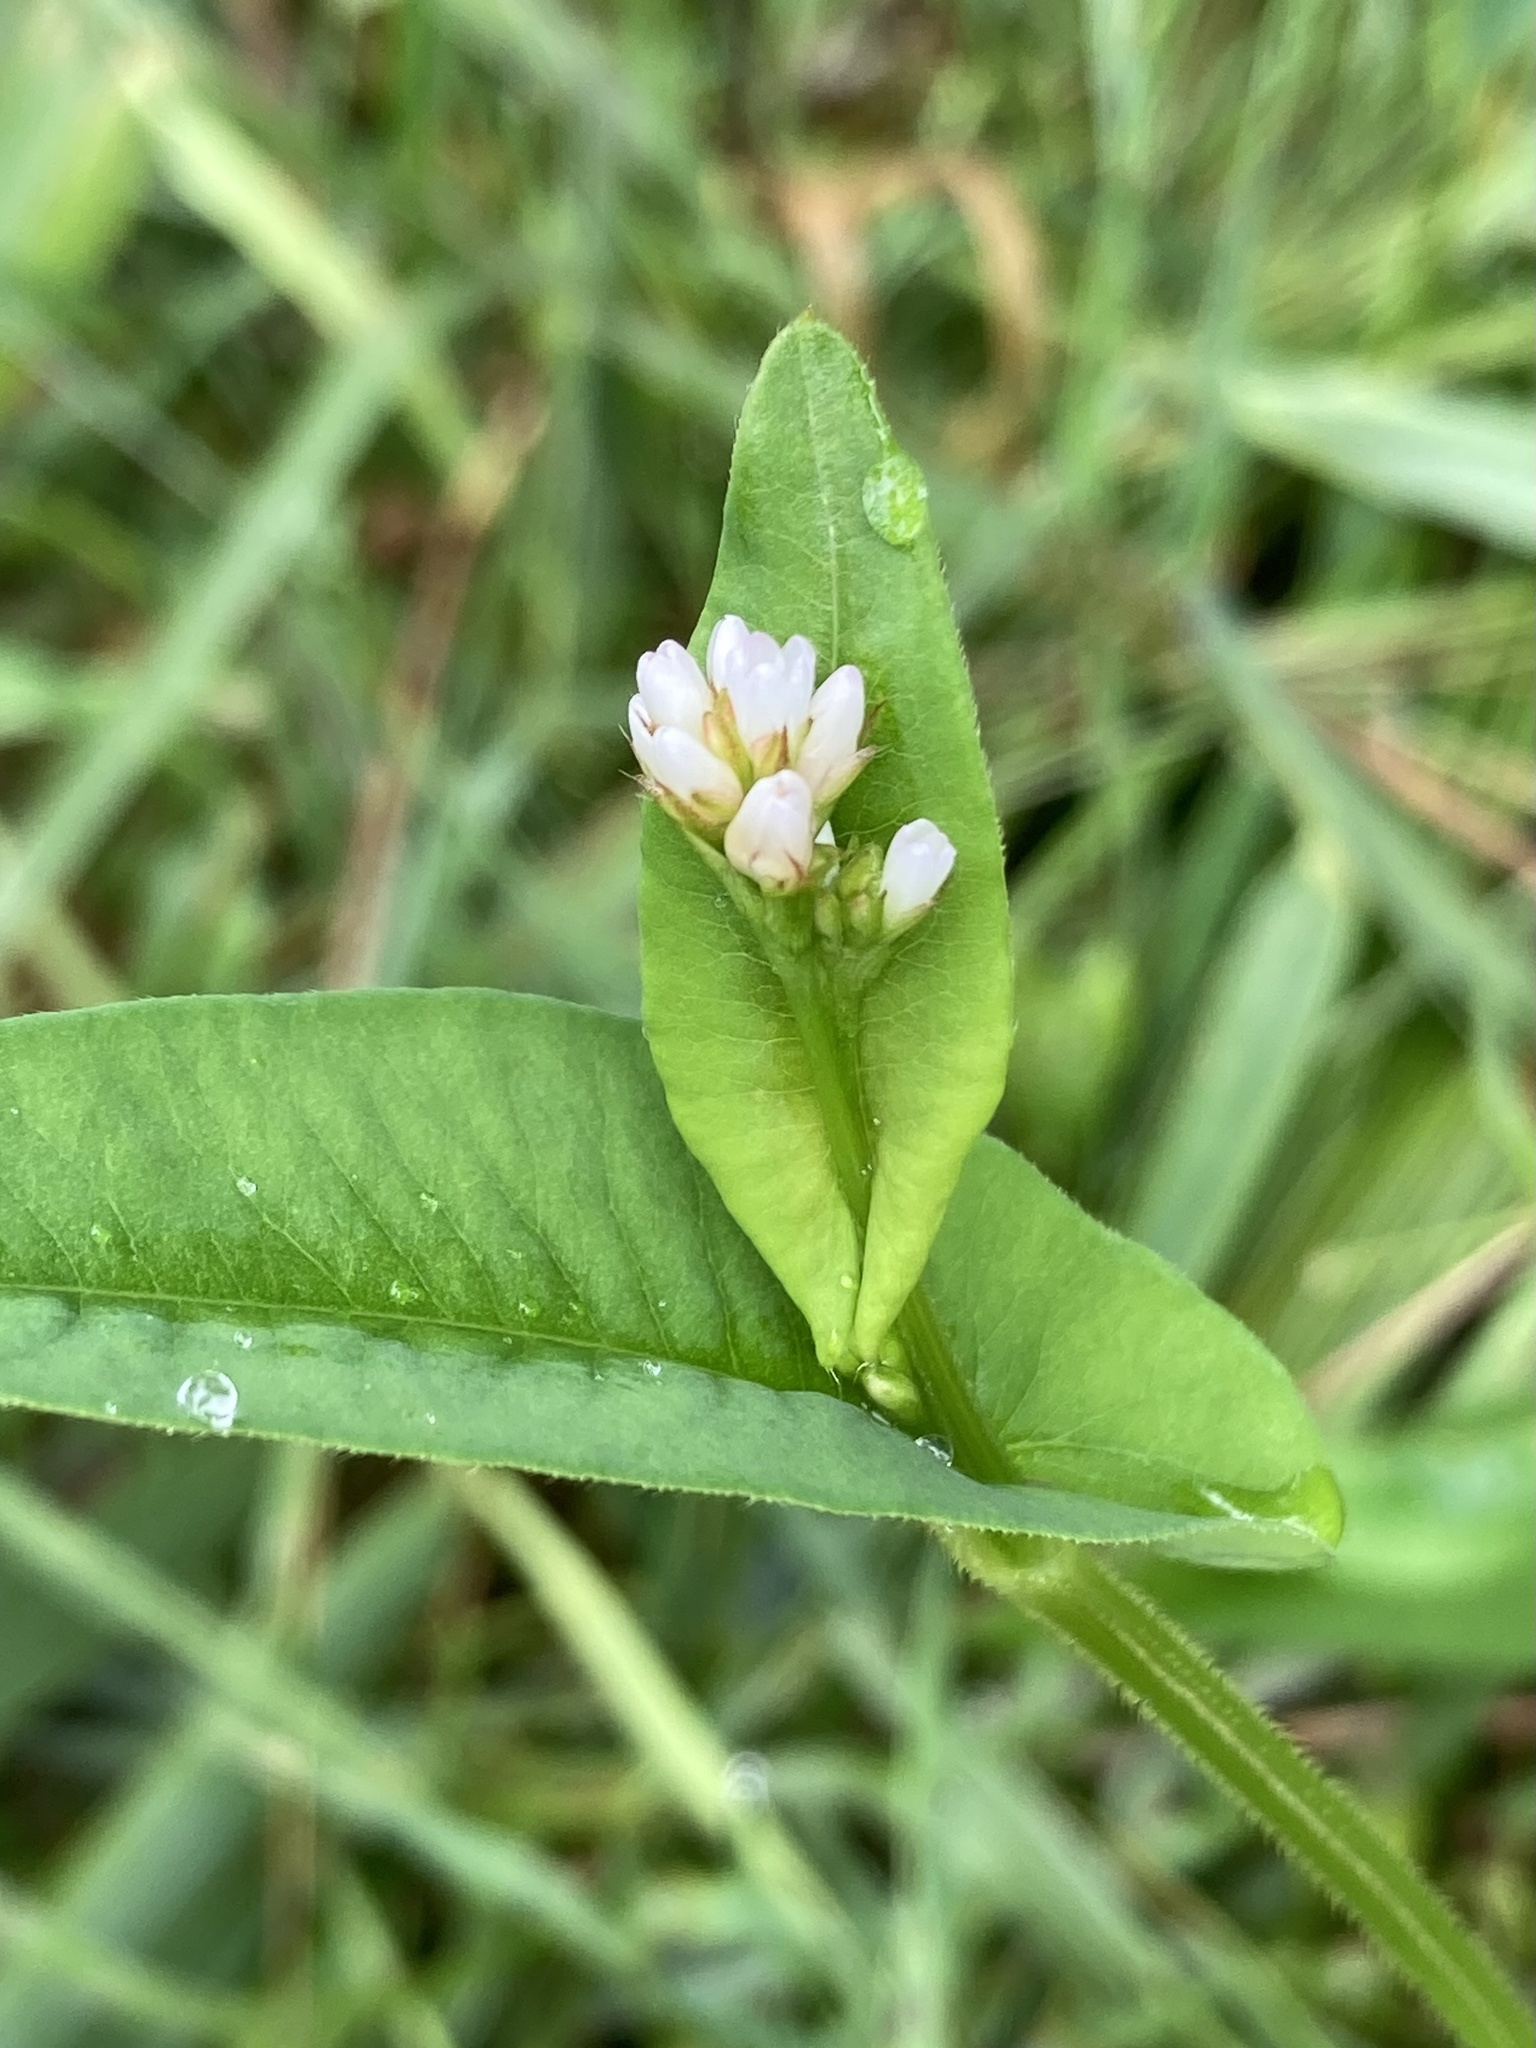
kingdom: Plantae
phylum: Tracheophyta
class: Magnoliopsida
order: Caryophyllales
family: Polygonaceae
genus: Persicaria
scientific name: Persicaria sagittata
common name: American tearthumb
